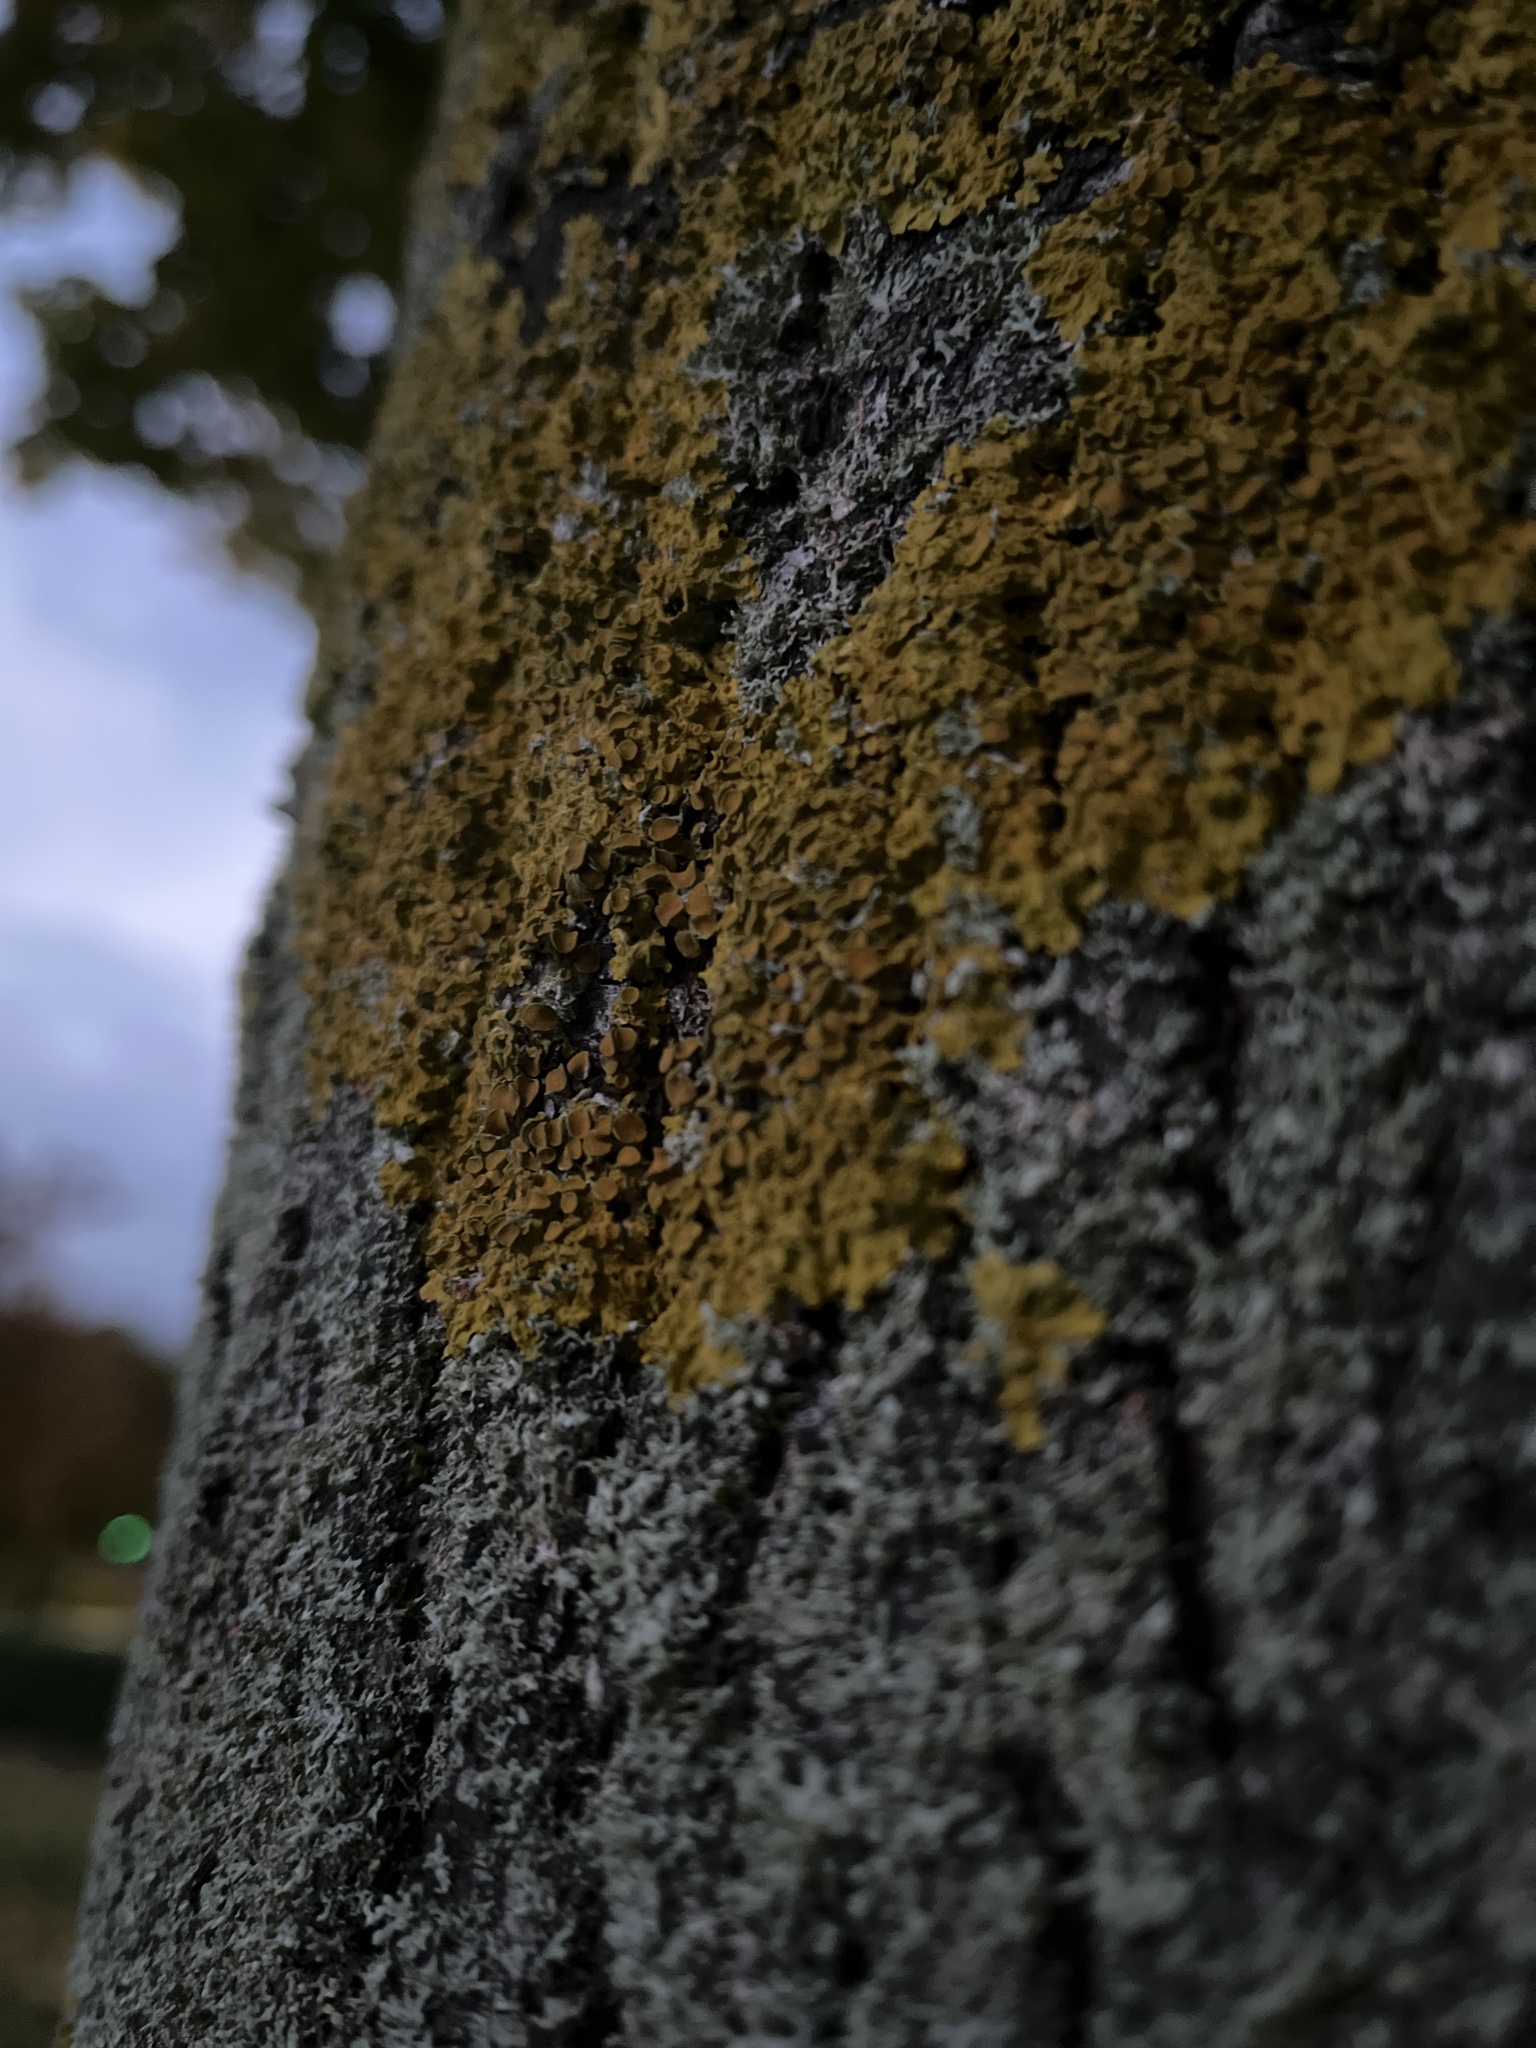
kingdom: Fungi
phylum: Ascomycota
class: Lecanoromycetes
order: Teloschistales
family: Teloschistaceae
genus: Xanthoria
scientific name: Xanthoria parietina
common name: Common orange lichen
